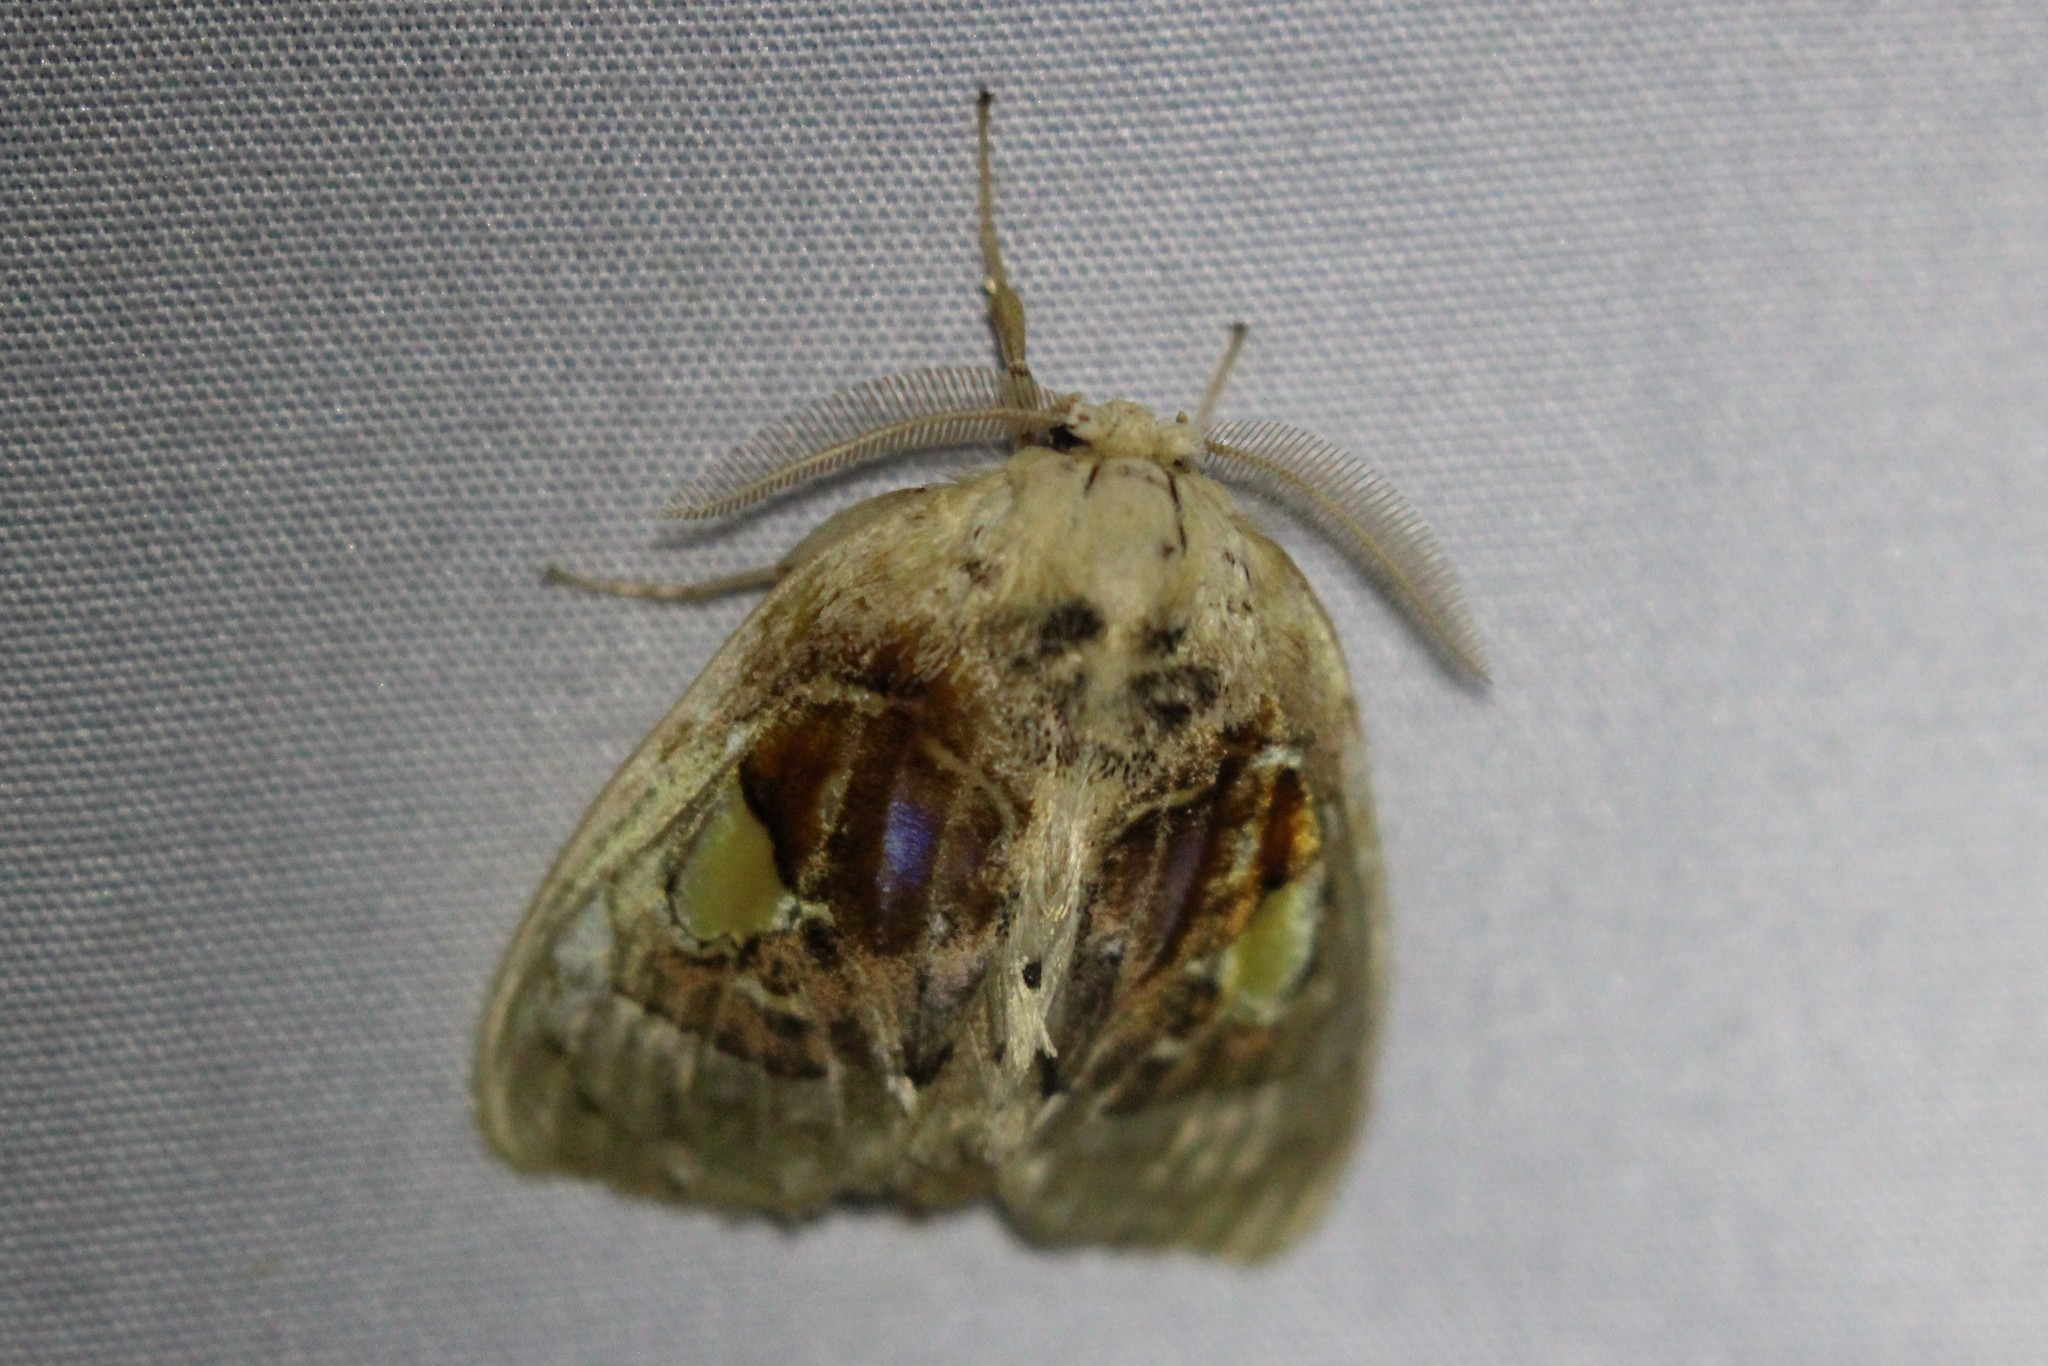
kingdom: Animalia
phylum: Arthropoda
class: Insecta
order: Lepidoptera
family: Psychidae
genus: Arrhenophanes
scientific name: Arrhenophanes perspicilla
